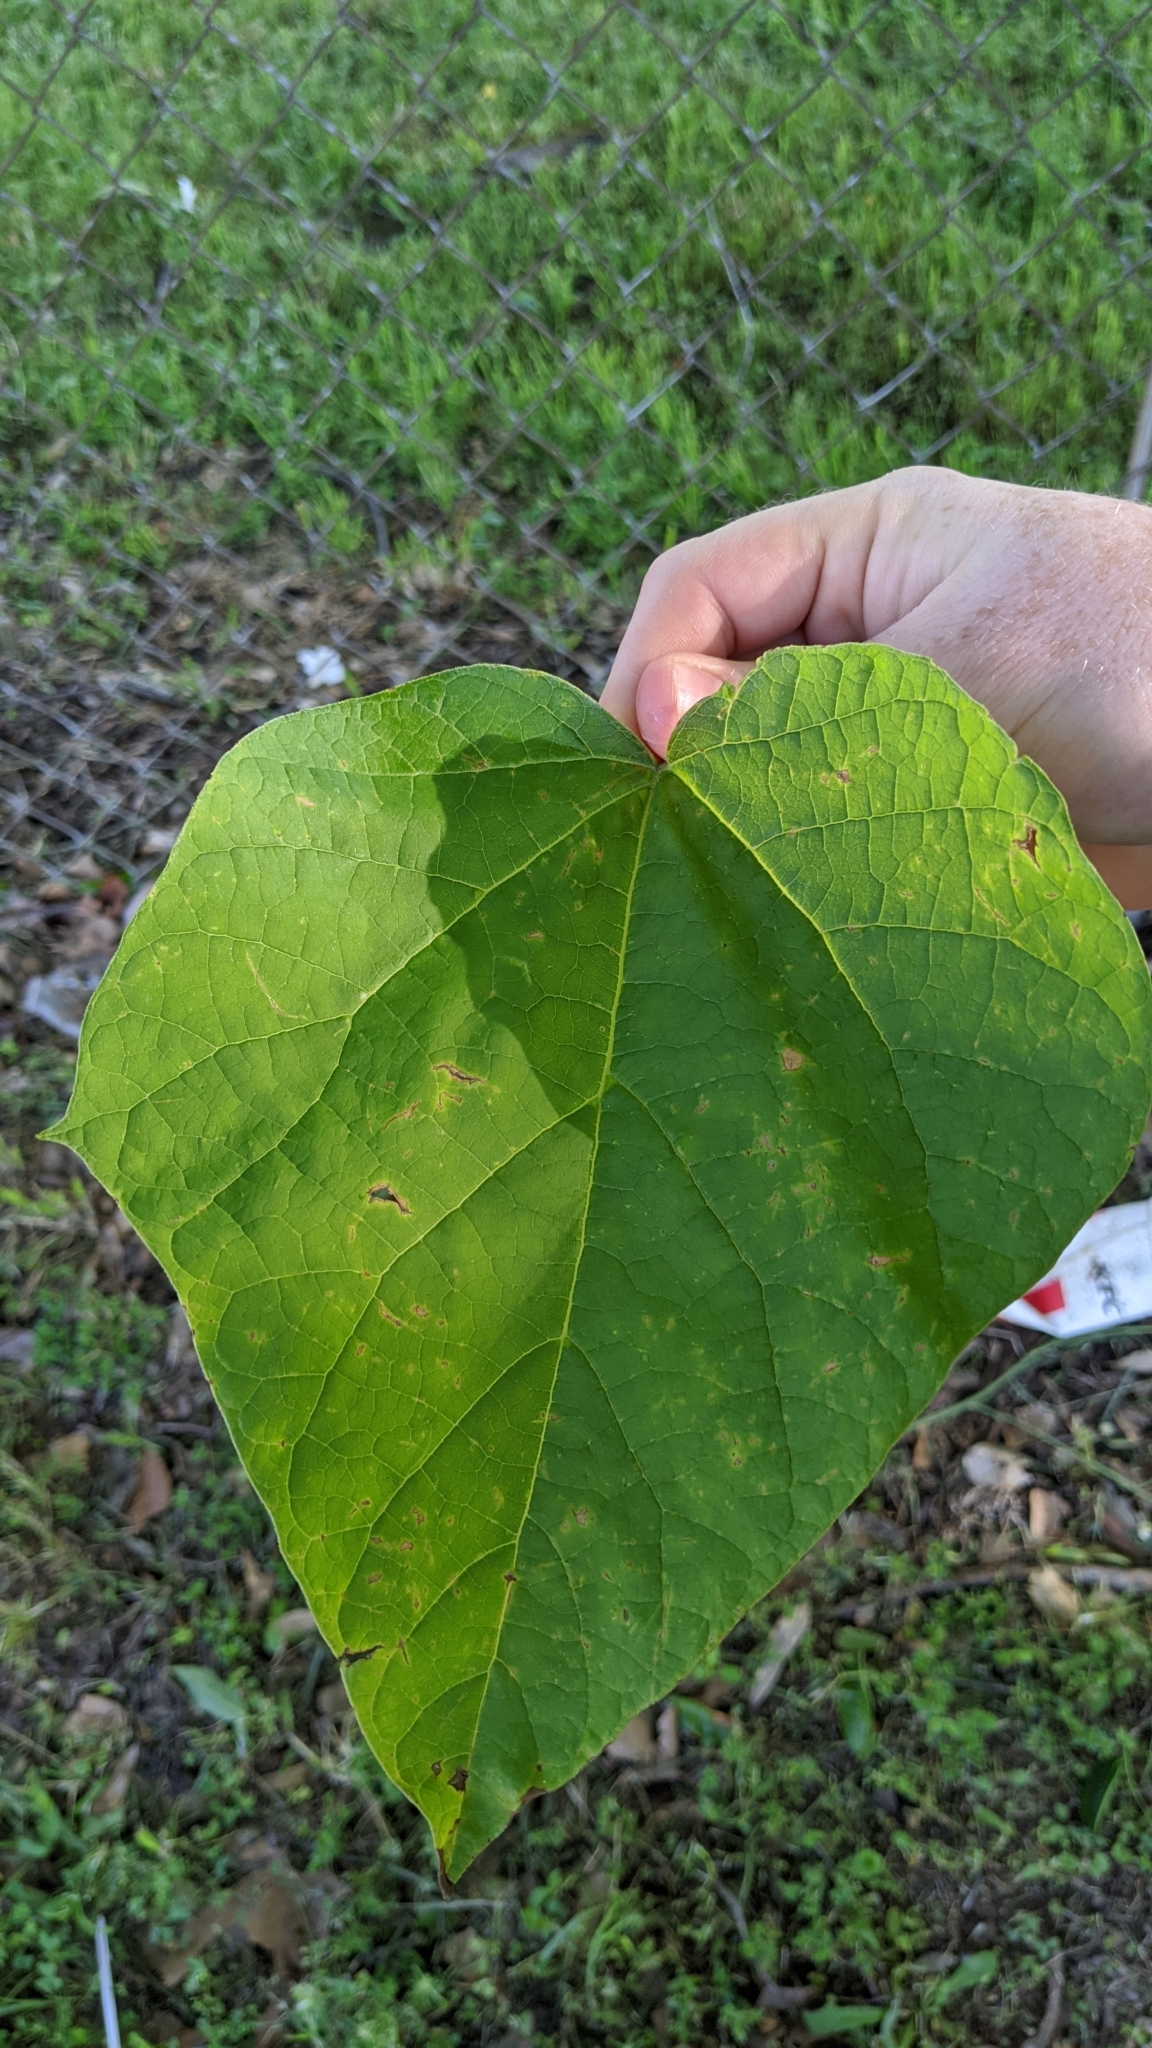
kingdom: Plantae
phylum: Tracheophyta
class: Magnoliopsida
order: Lamiales
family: Bignoniaceae
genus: Catalpa
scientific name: Catalpa speciosa
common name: Northern catalpa
